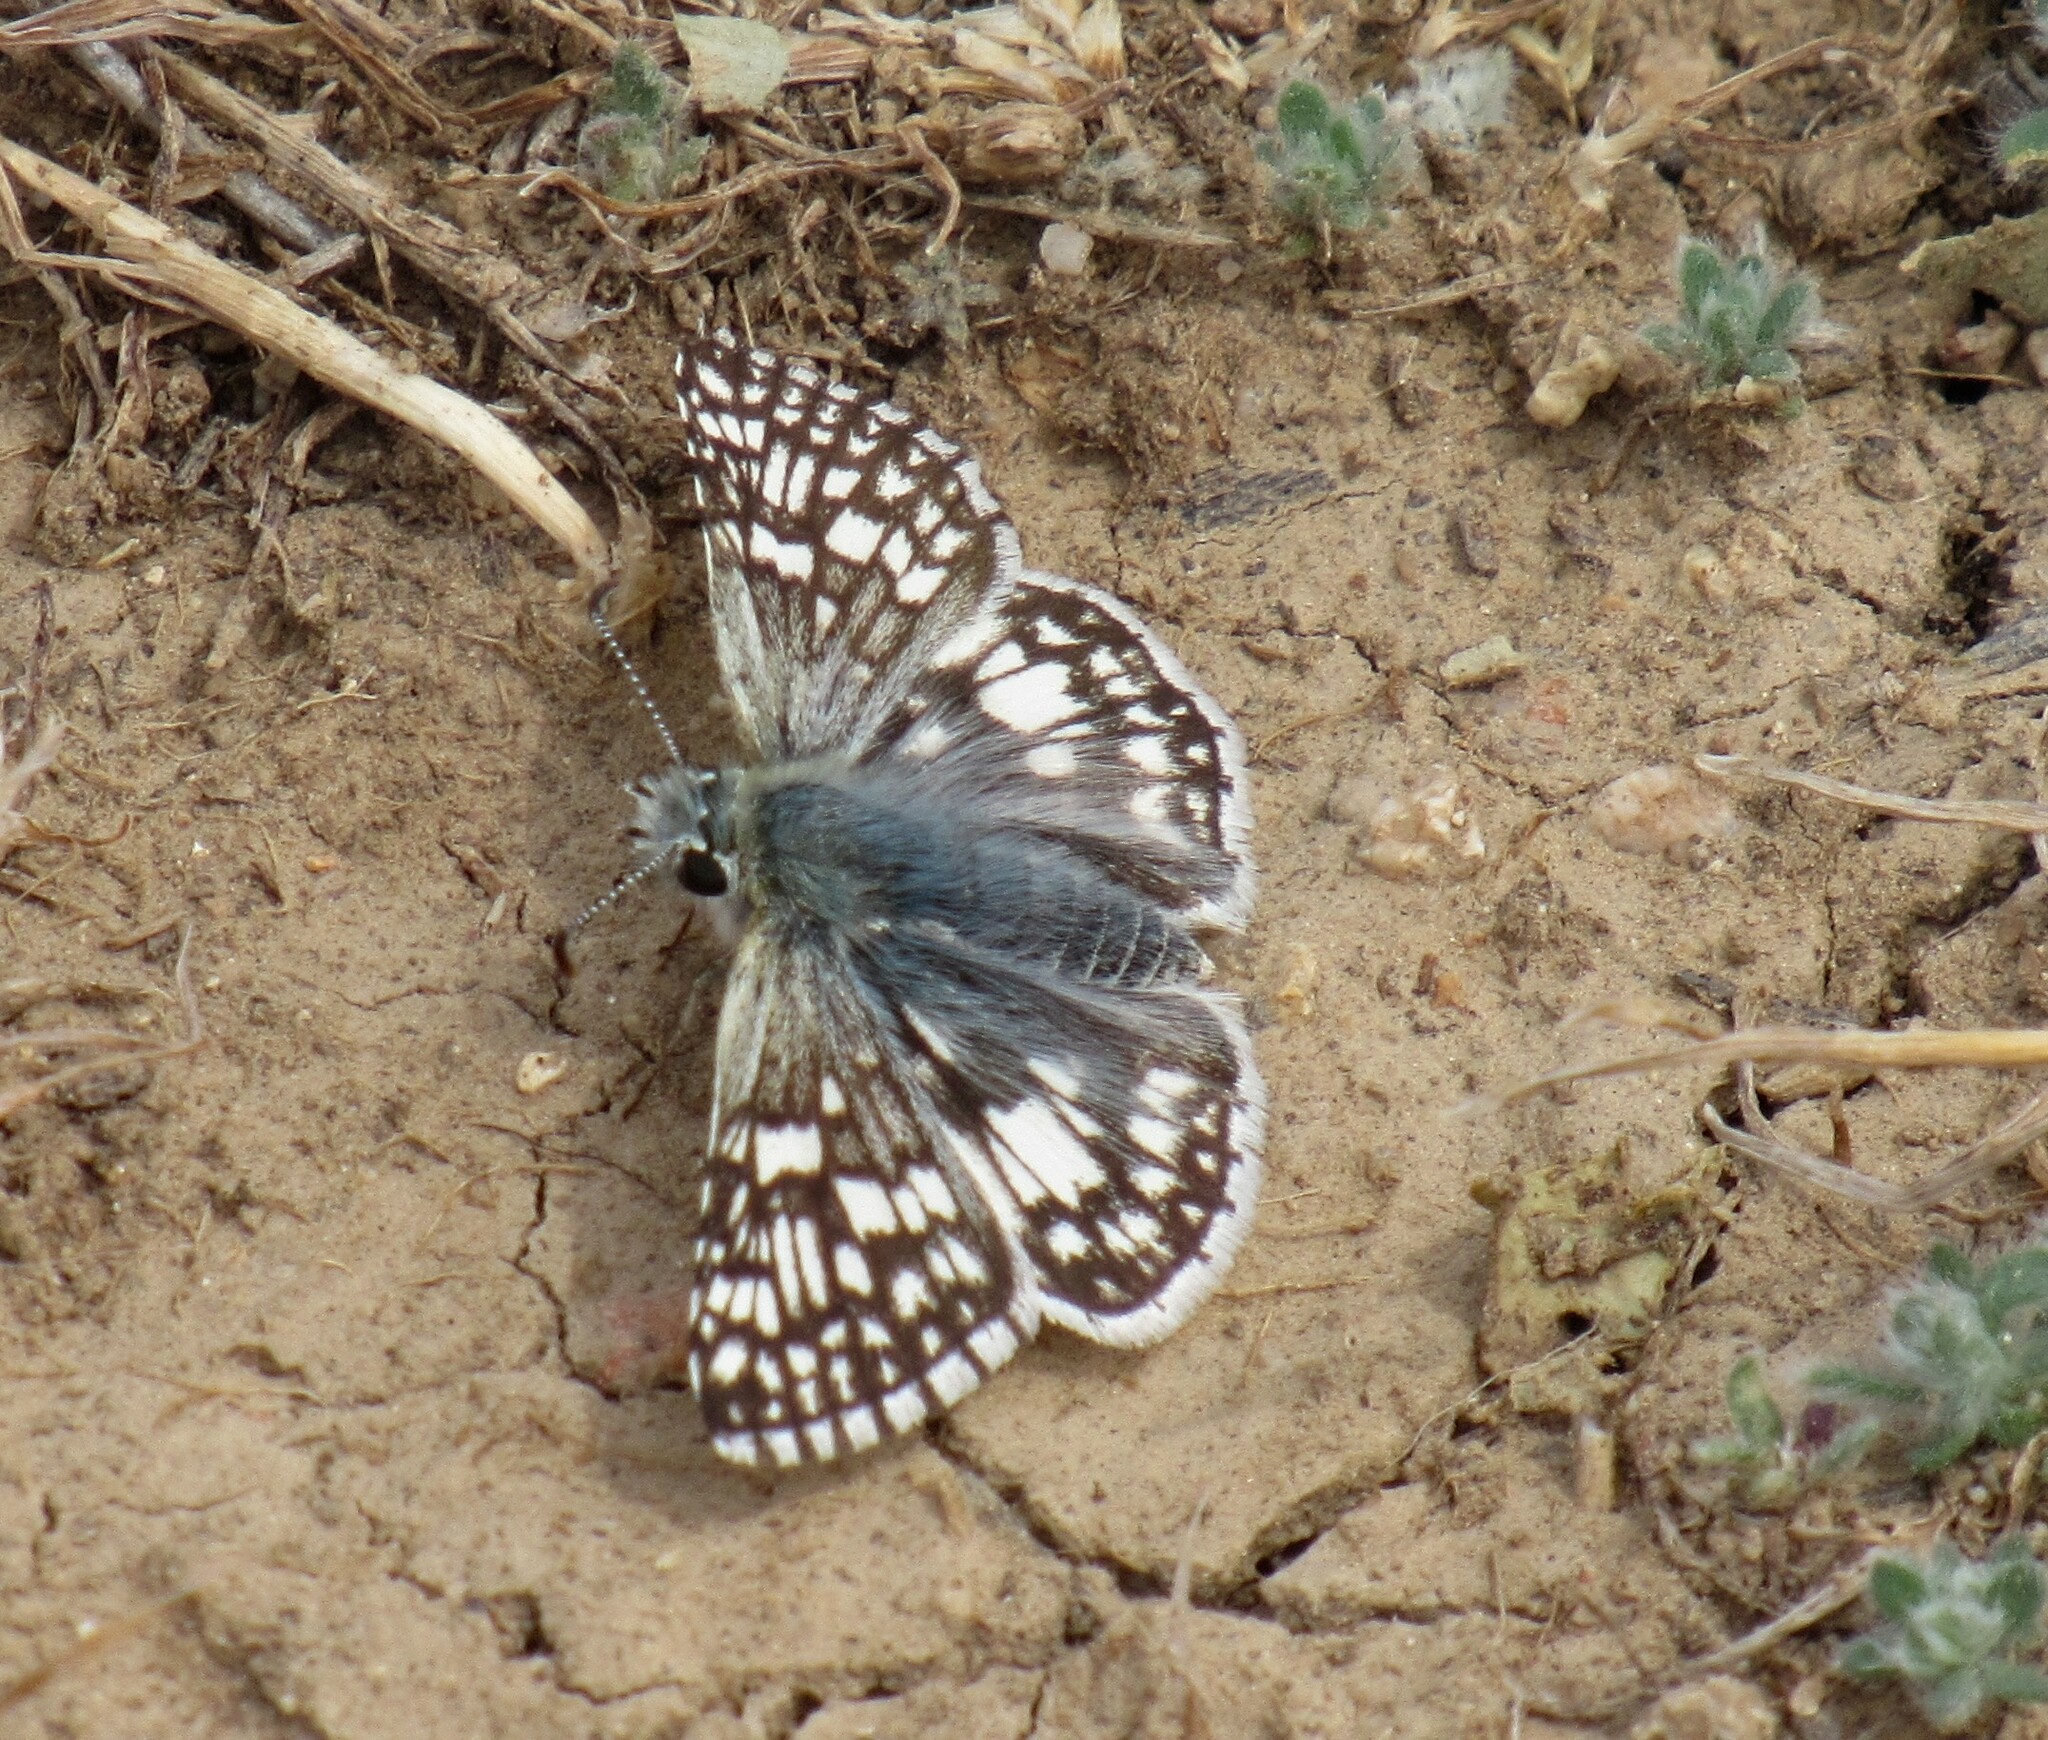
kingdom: Animalia
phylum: Arthropoda
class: Insecta
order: Lepidoptera
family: Hesperiidae
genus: Burnsius
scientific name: Burnsius communis
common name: Common checkered-skipper
